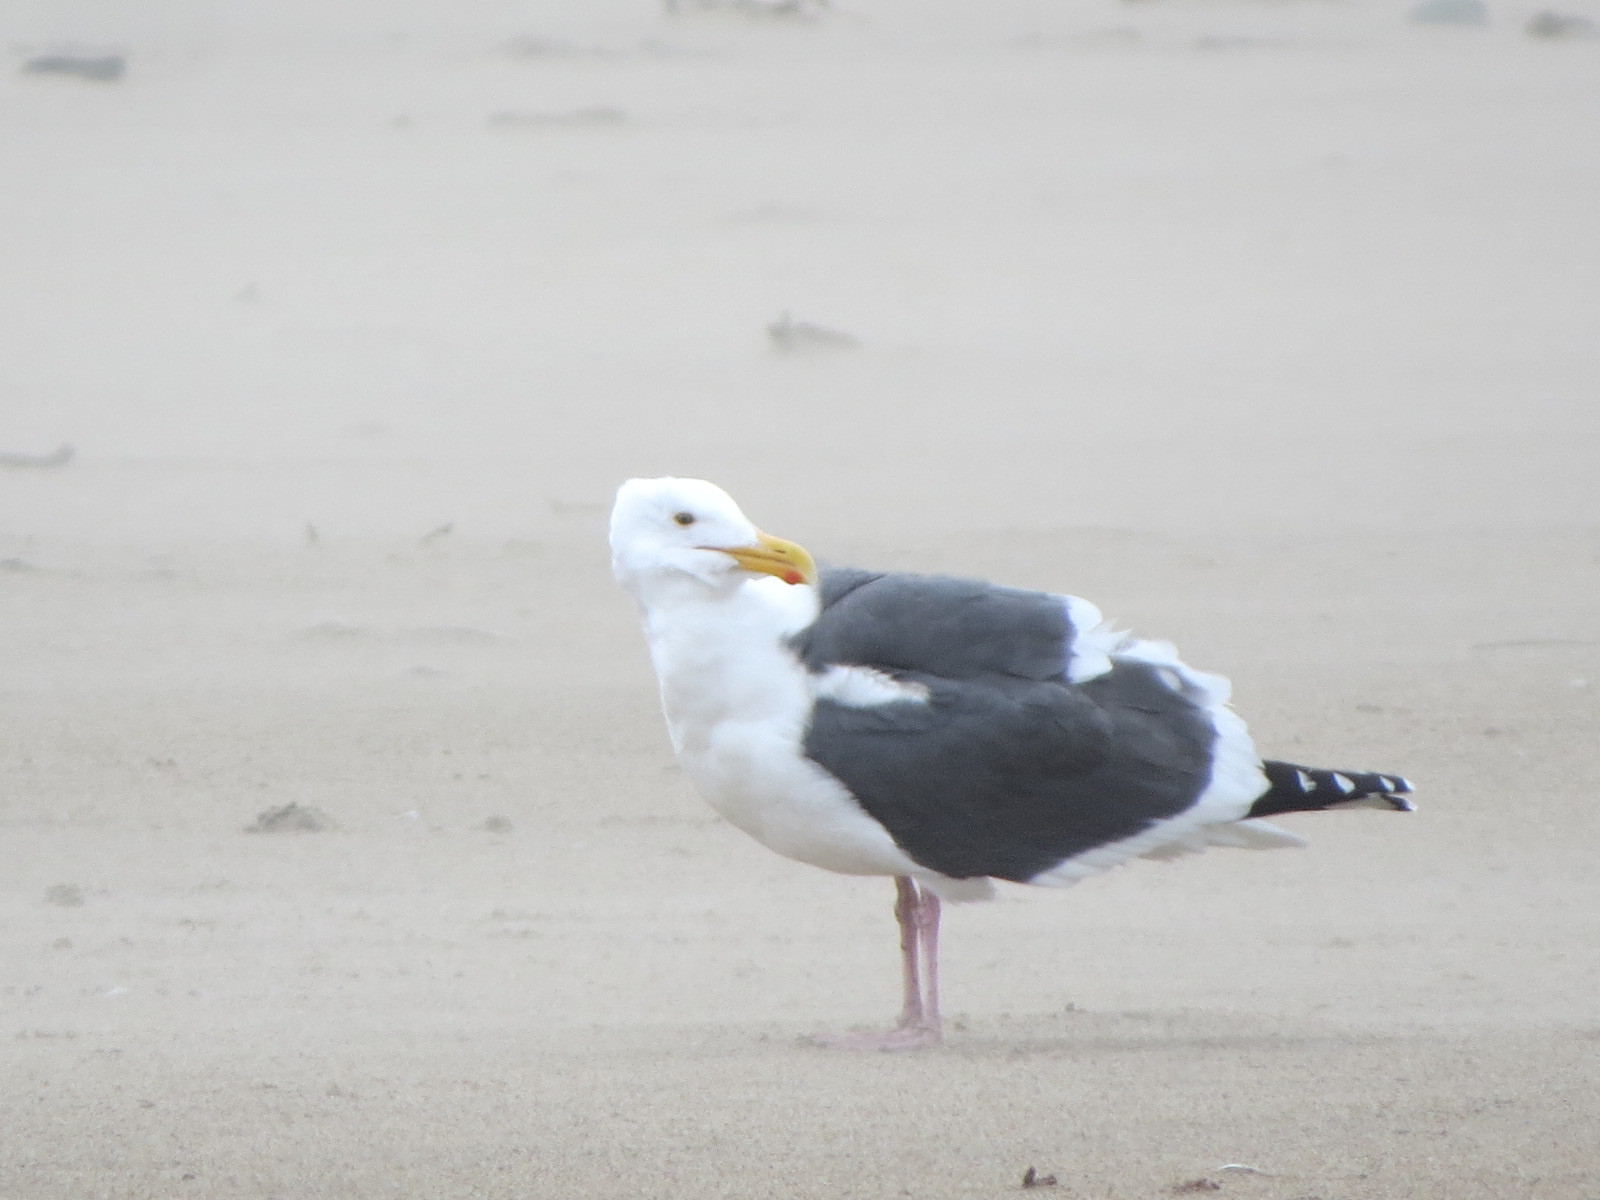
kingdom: Animalia
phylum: Chordata
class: Aves
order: Charadriiformes
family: Laridae
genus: Larus
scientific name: Larus occidentalis
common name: Western gull
